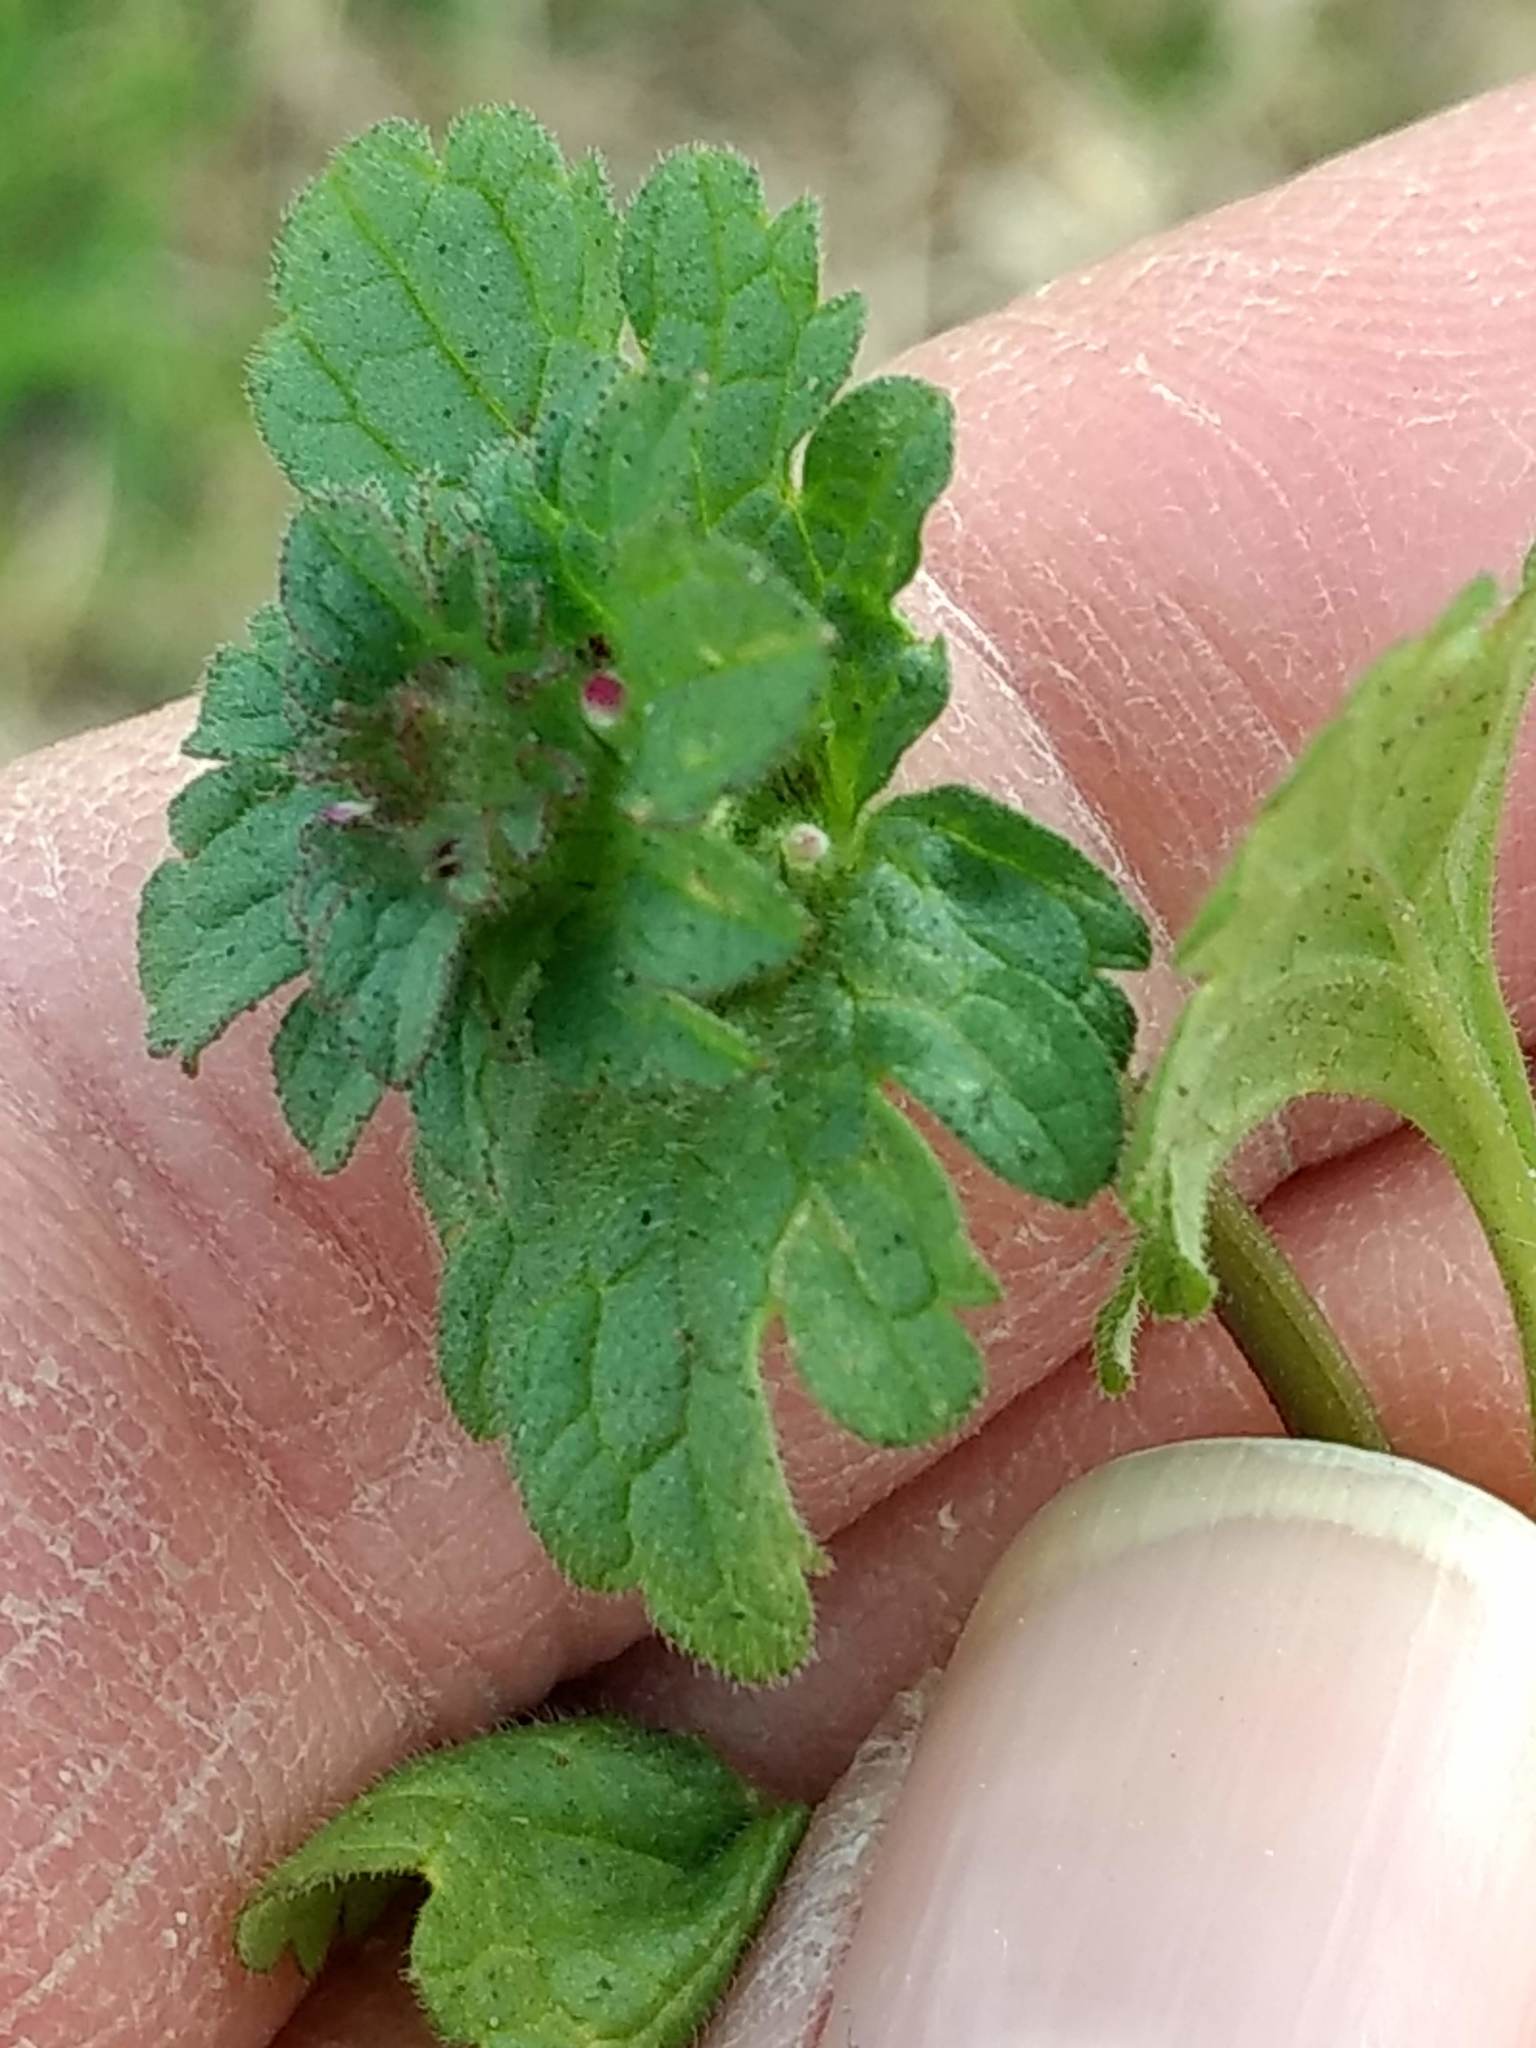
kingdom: Plantae
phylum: Tracheophyta
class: Magnoliopsida
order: Lamiales
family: Lamiaceae
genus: Lamium
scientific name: Lamium amplexicaule
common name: Henbit dead-nettle
